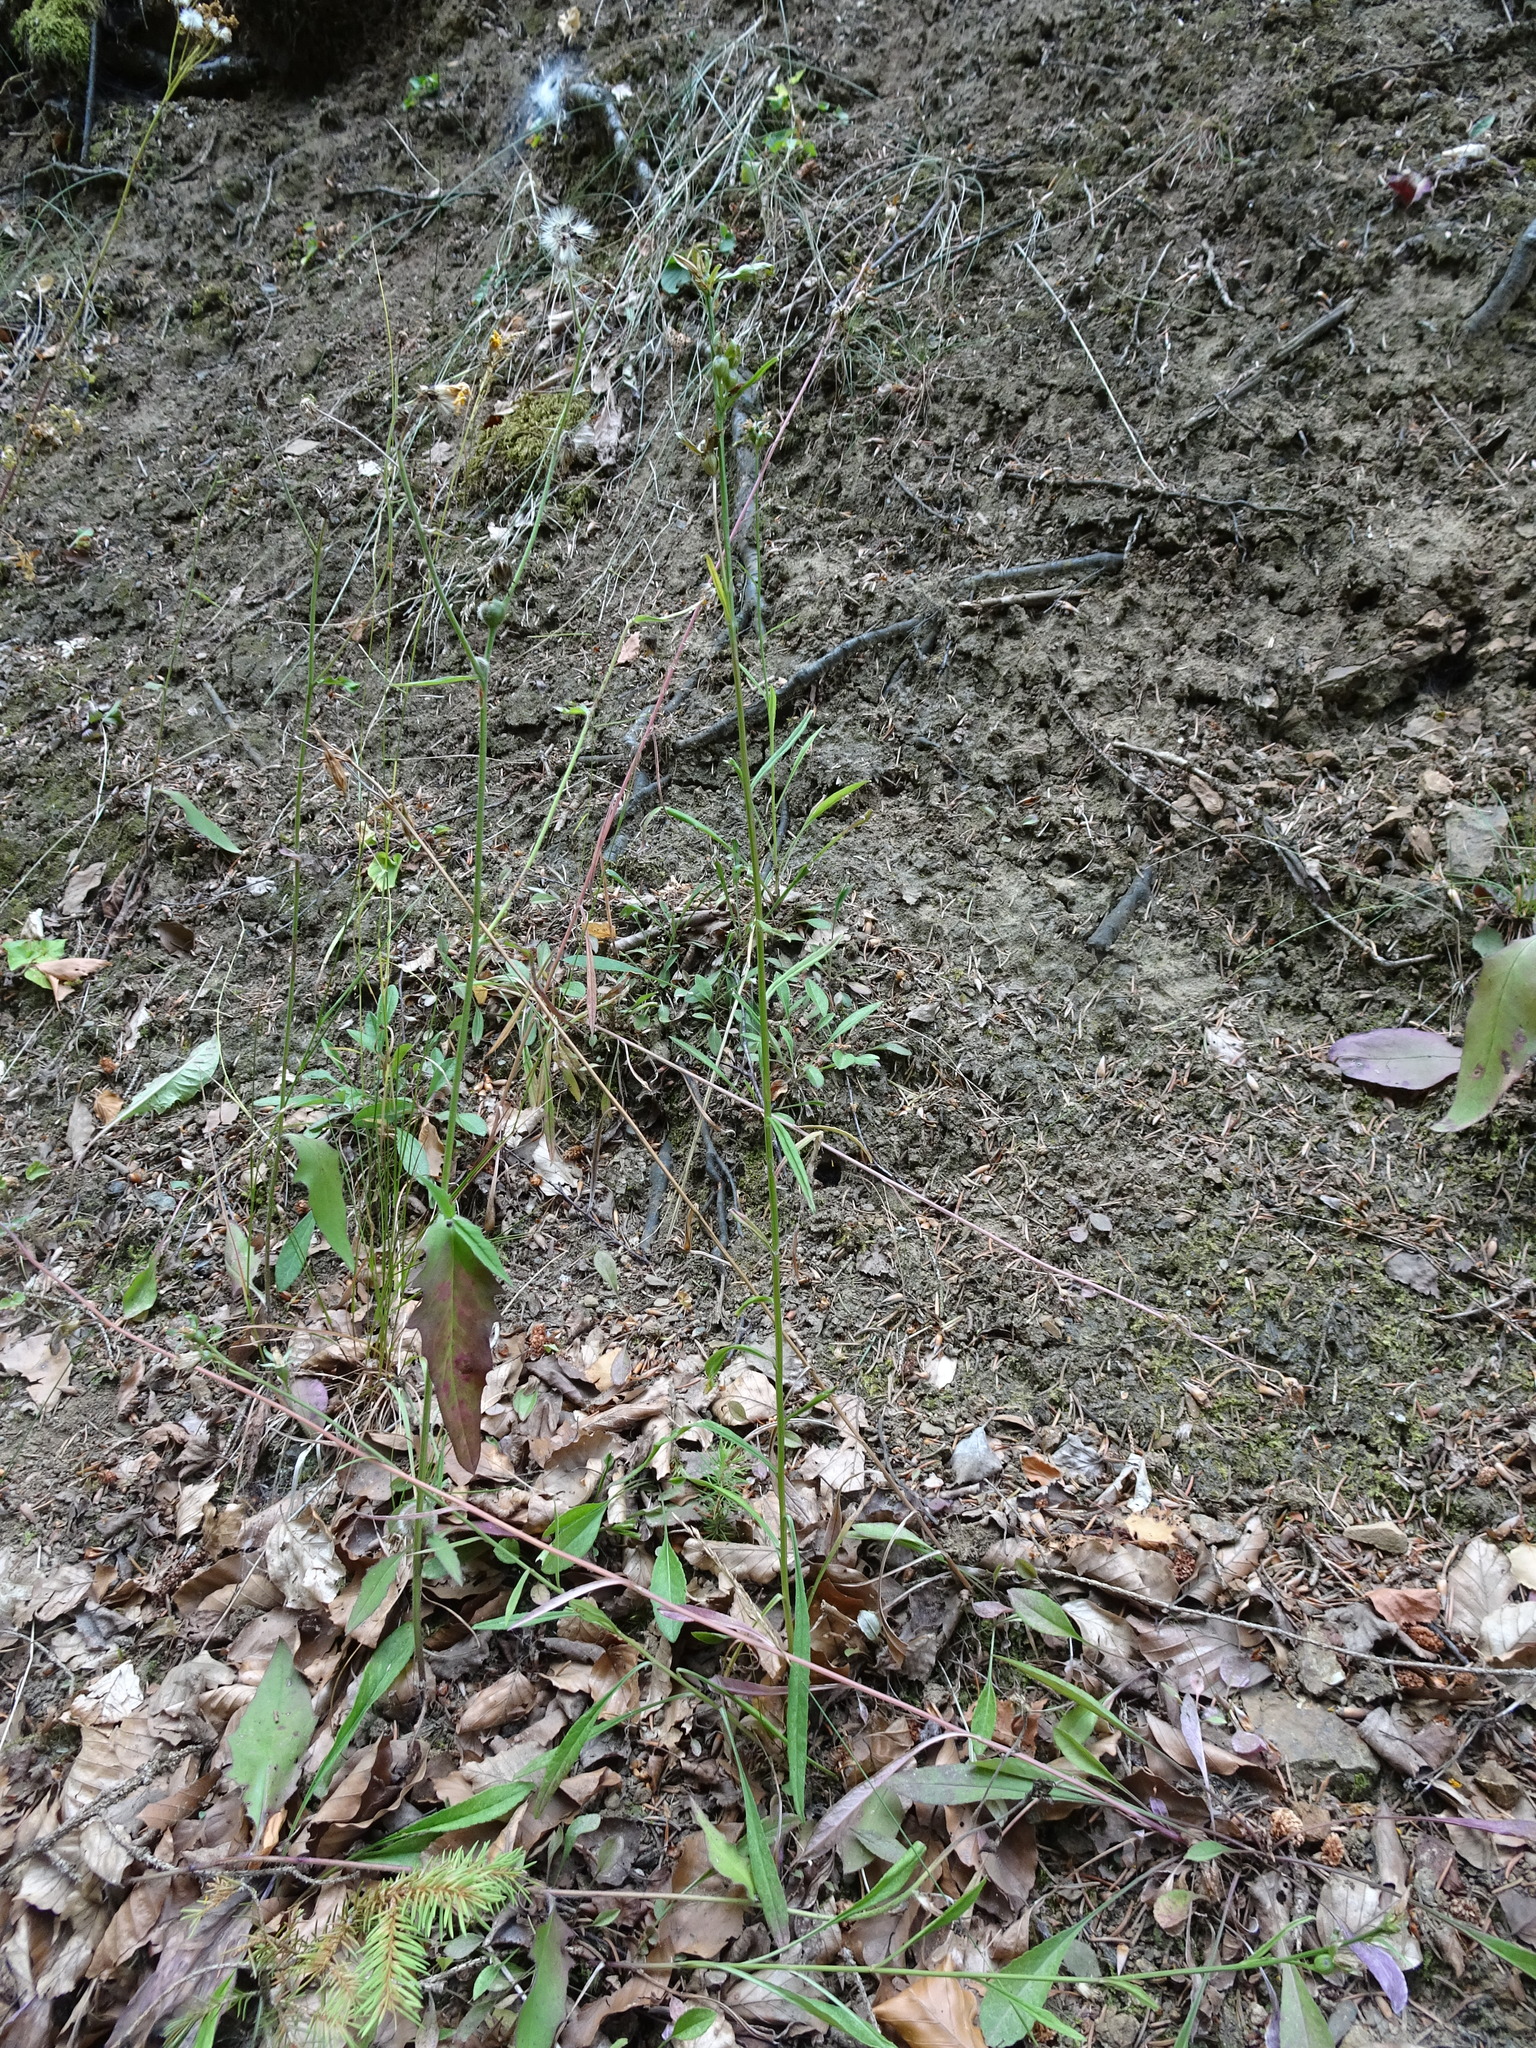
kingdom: Plantae
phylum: Tracheophyta
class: Magnoliopsida
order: Asterales
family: Campanulaceae
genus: Campanula
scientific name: Campanula persicifolia
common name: Peach-leaved bellflower
